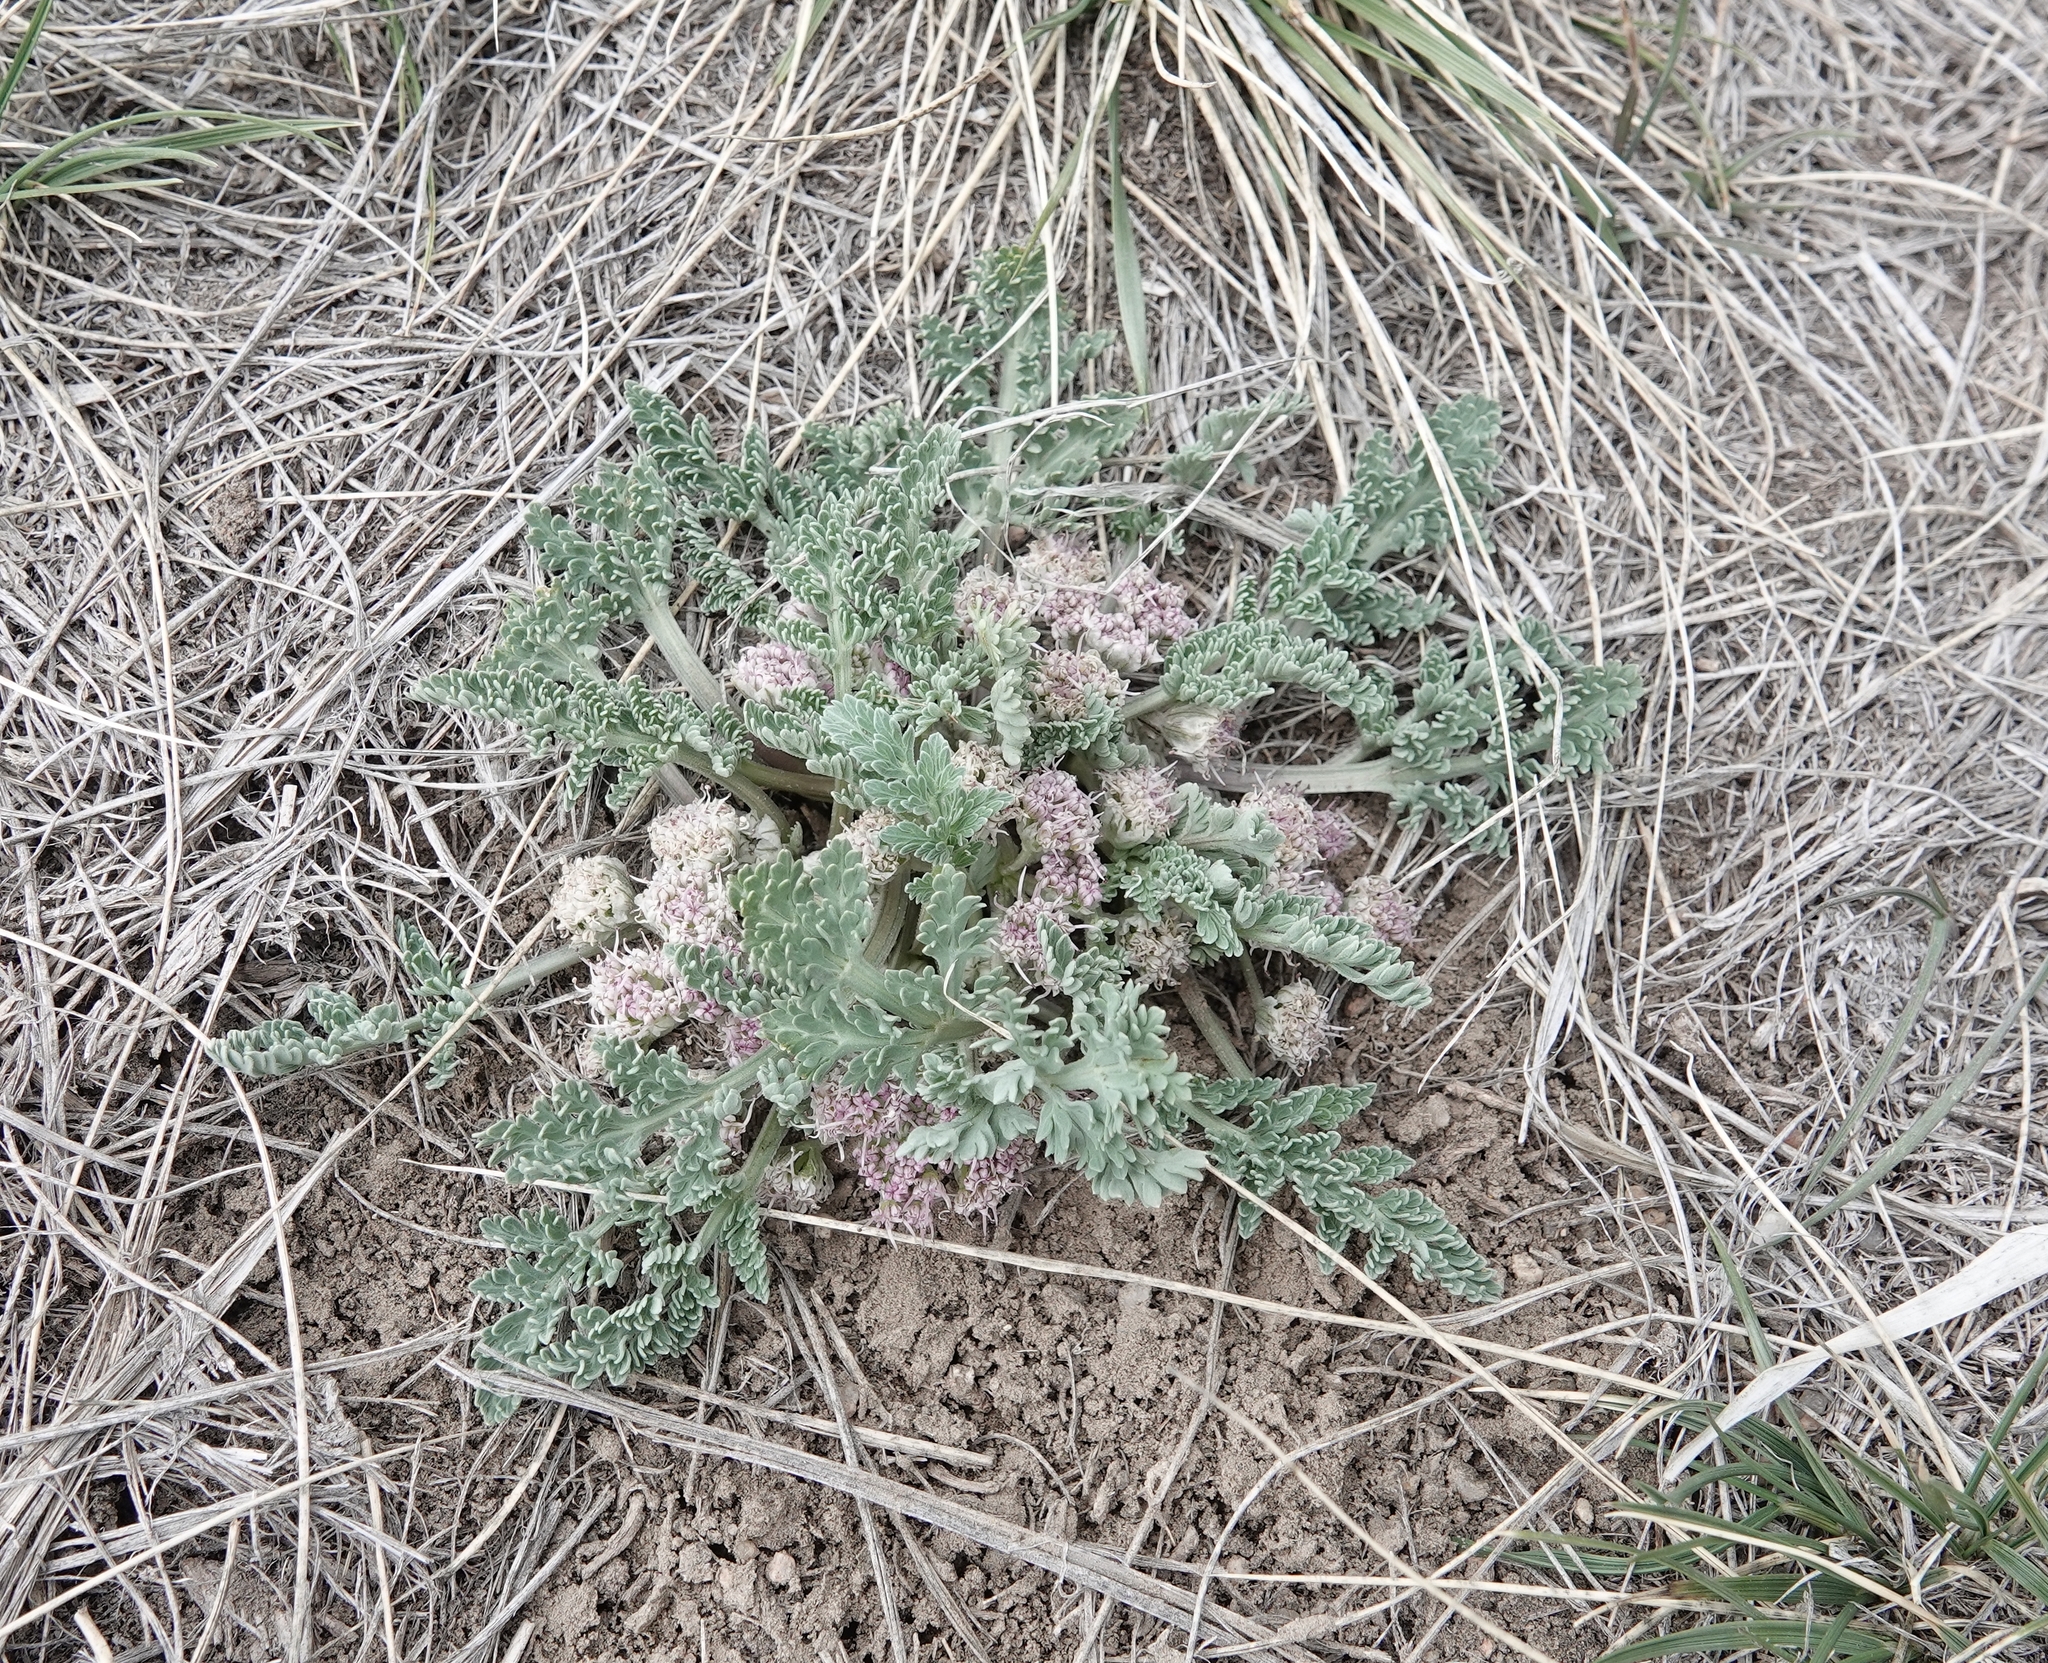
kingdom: Plantae
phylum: Tracheophyta
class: Magnoliopsida
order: Apiales
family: Apiaceae
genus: Vesper
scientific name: Vesper montanus
